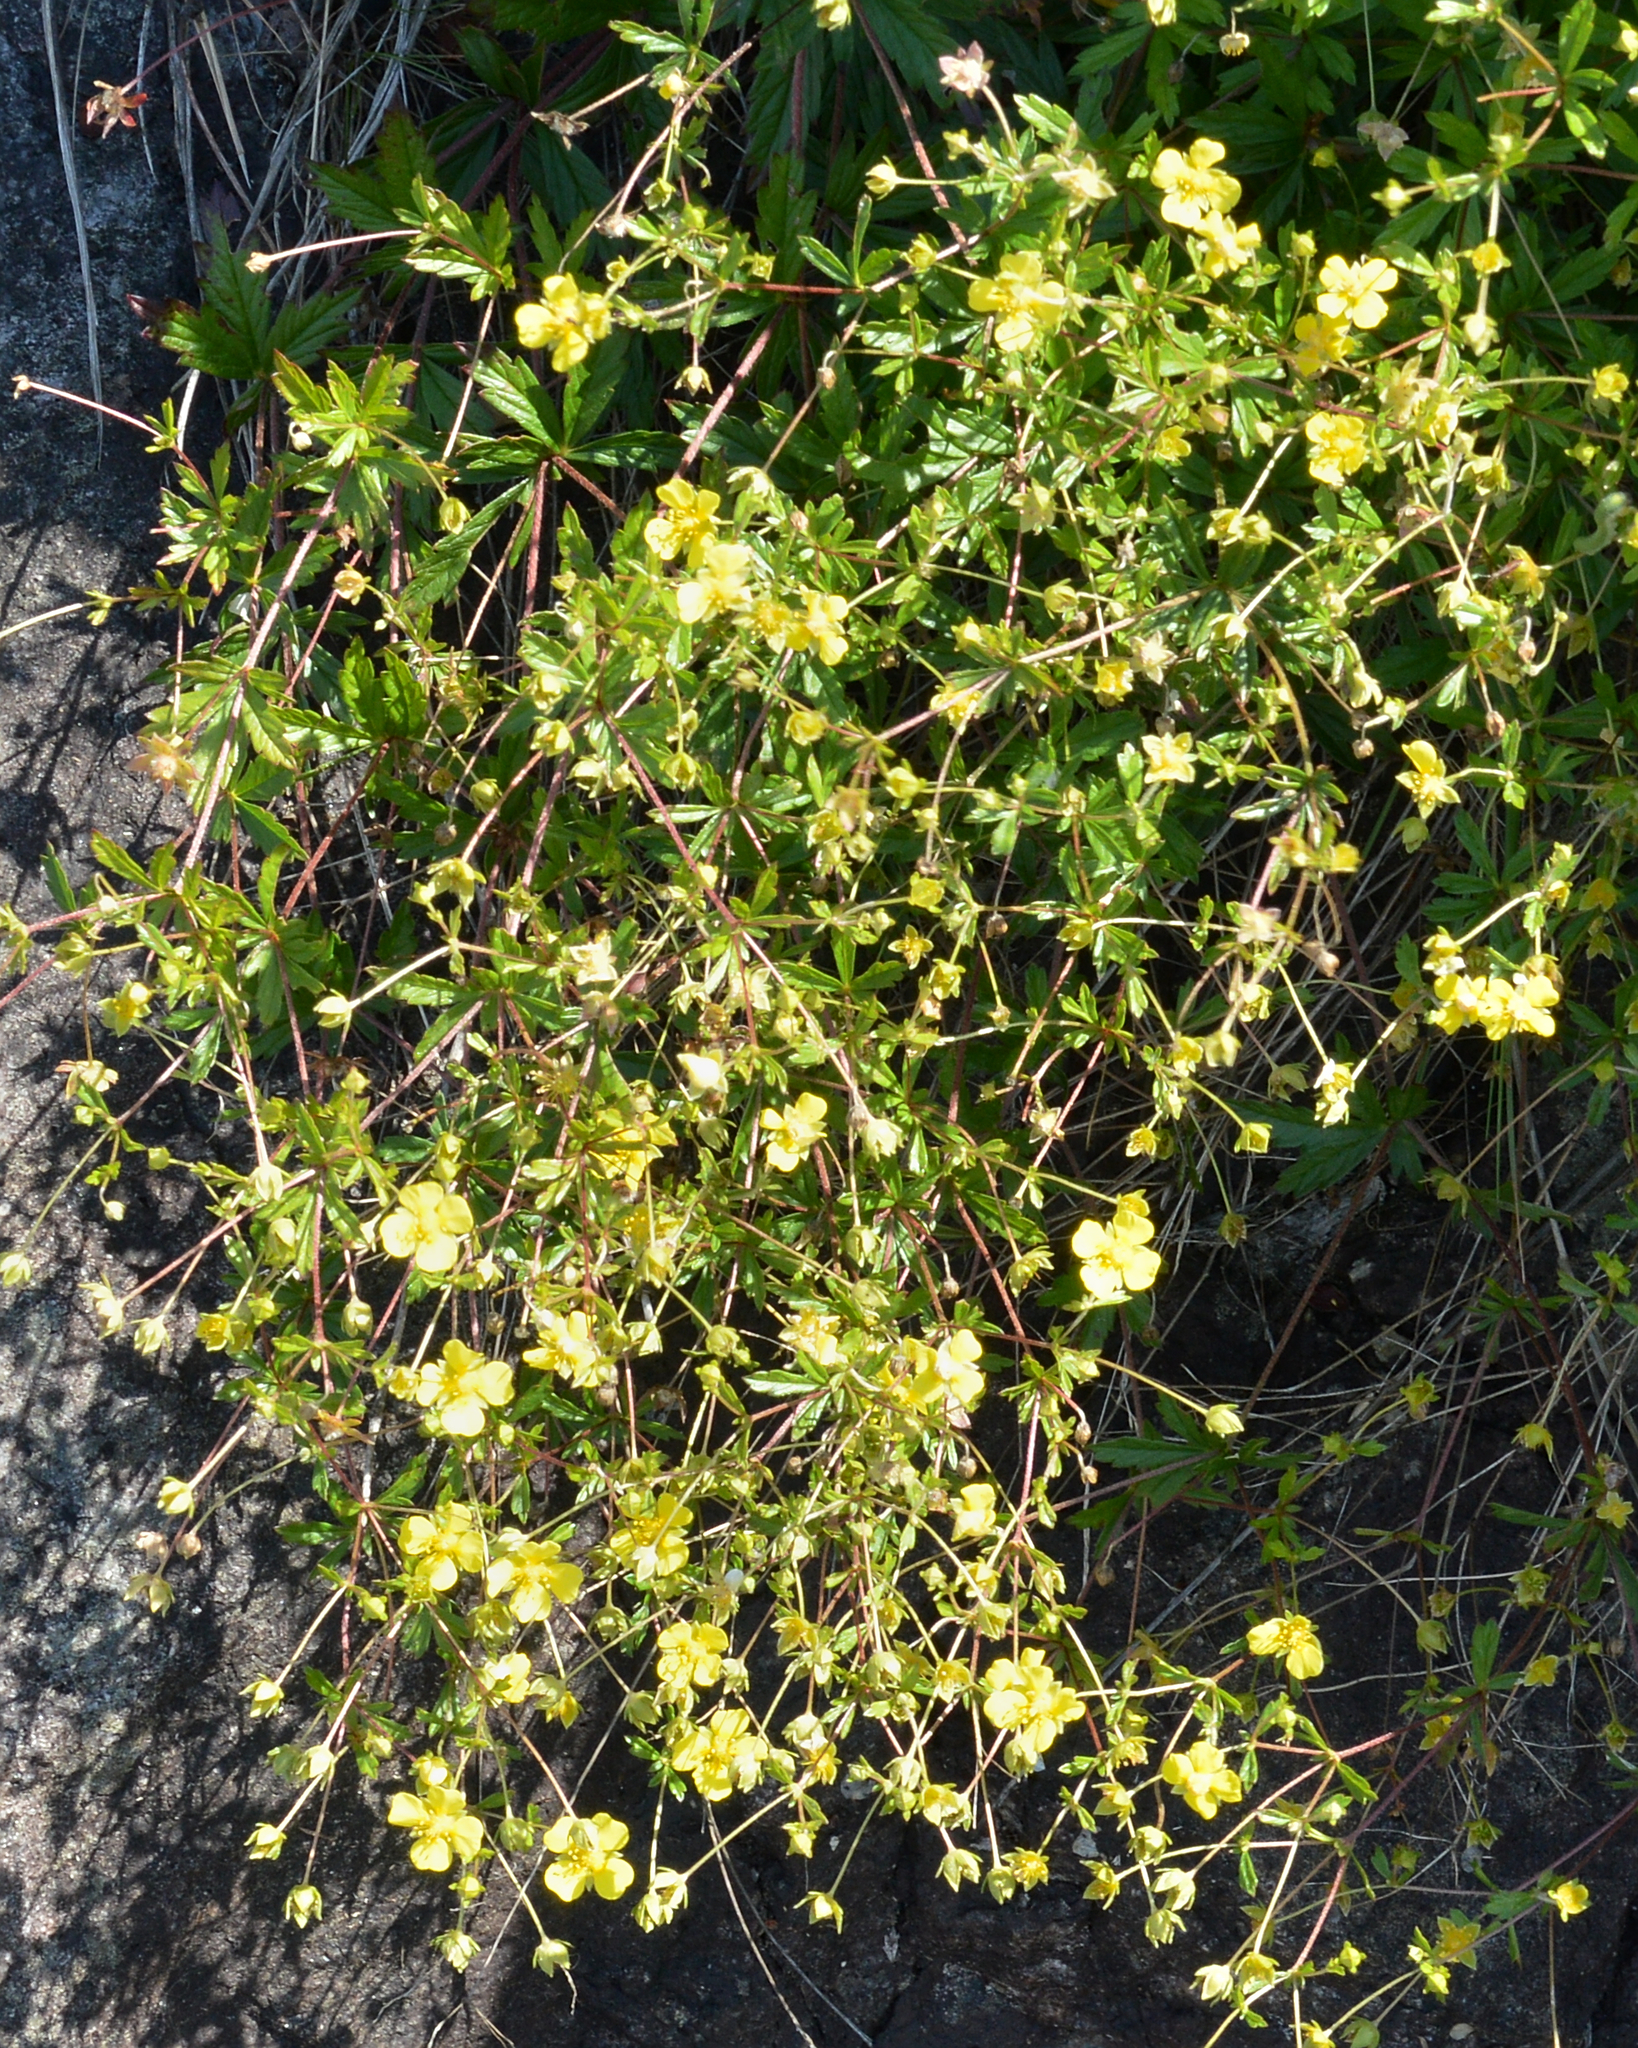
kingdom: Plantae
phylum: Tracheophyta
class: Magnoliopsida
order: Rosales
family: Rosaceae
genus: Potentilla
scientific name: Potentilla erecta
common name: Tormentil
